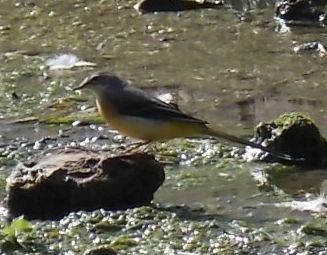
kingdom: Animalia
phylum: Chordata
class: Aves
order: Passeriformes
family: Motacillidae
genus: Motacilla
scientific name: Motacilla cinerea
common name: Grey wagtail
